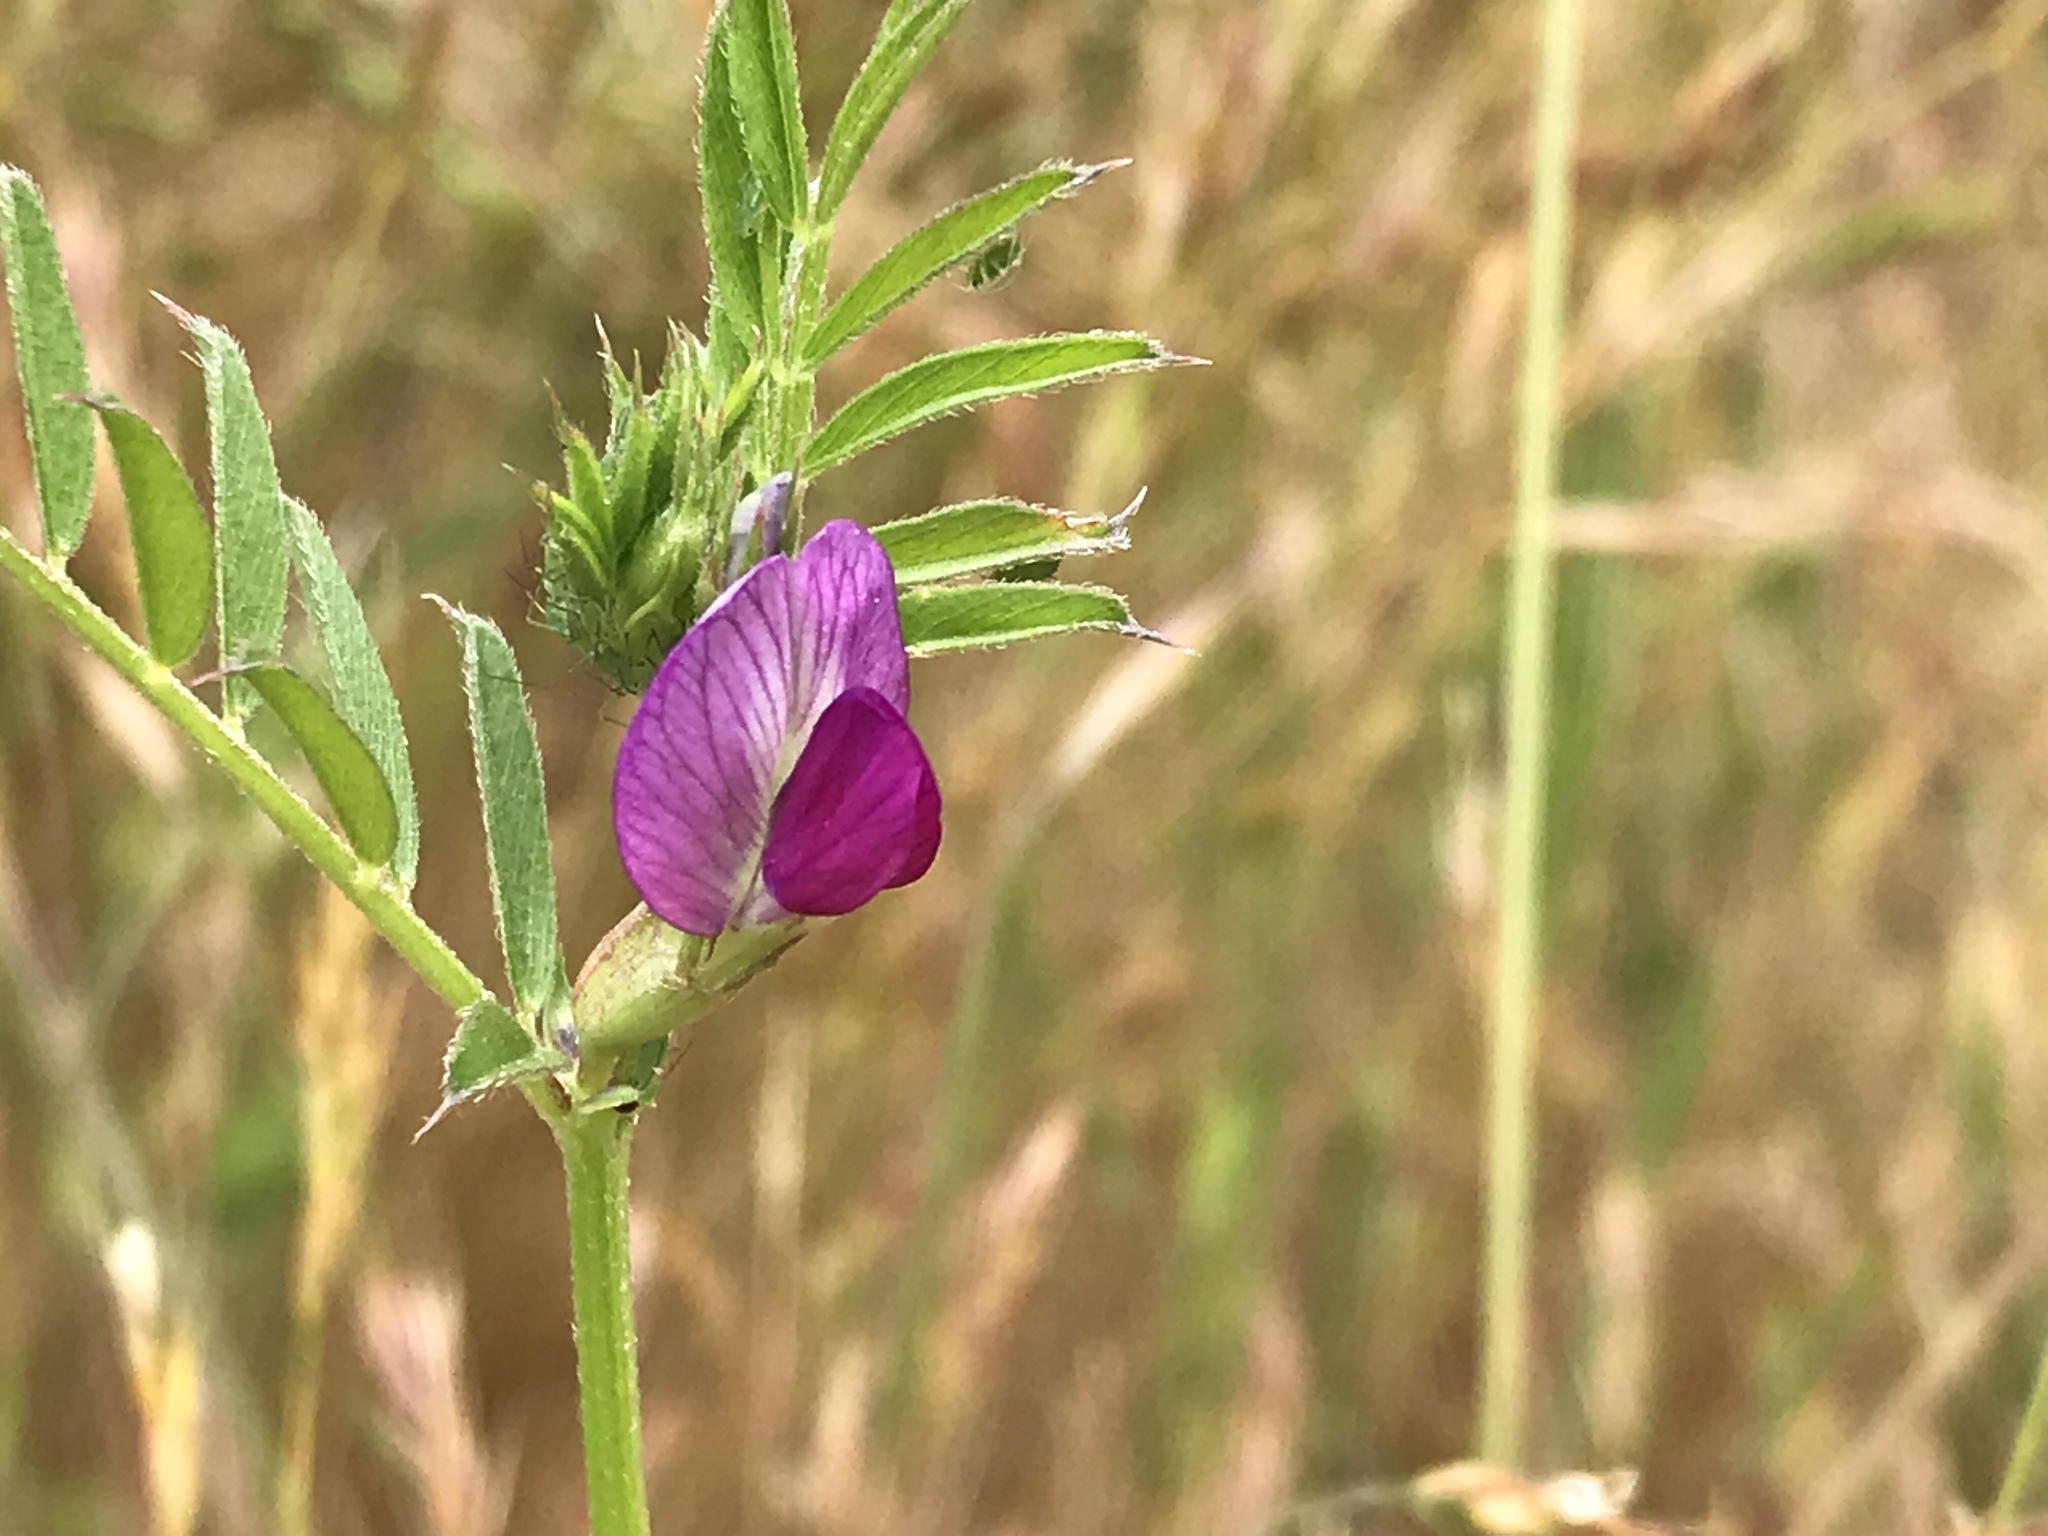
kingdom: Plantae
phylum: Tracheophyta
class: Magnoliopsida
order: Fabales
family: Fabaceae
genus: Vicia
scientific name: Vicia sativa
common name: Garden vetch
